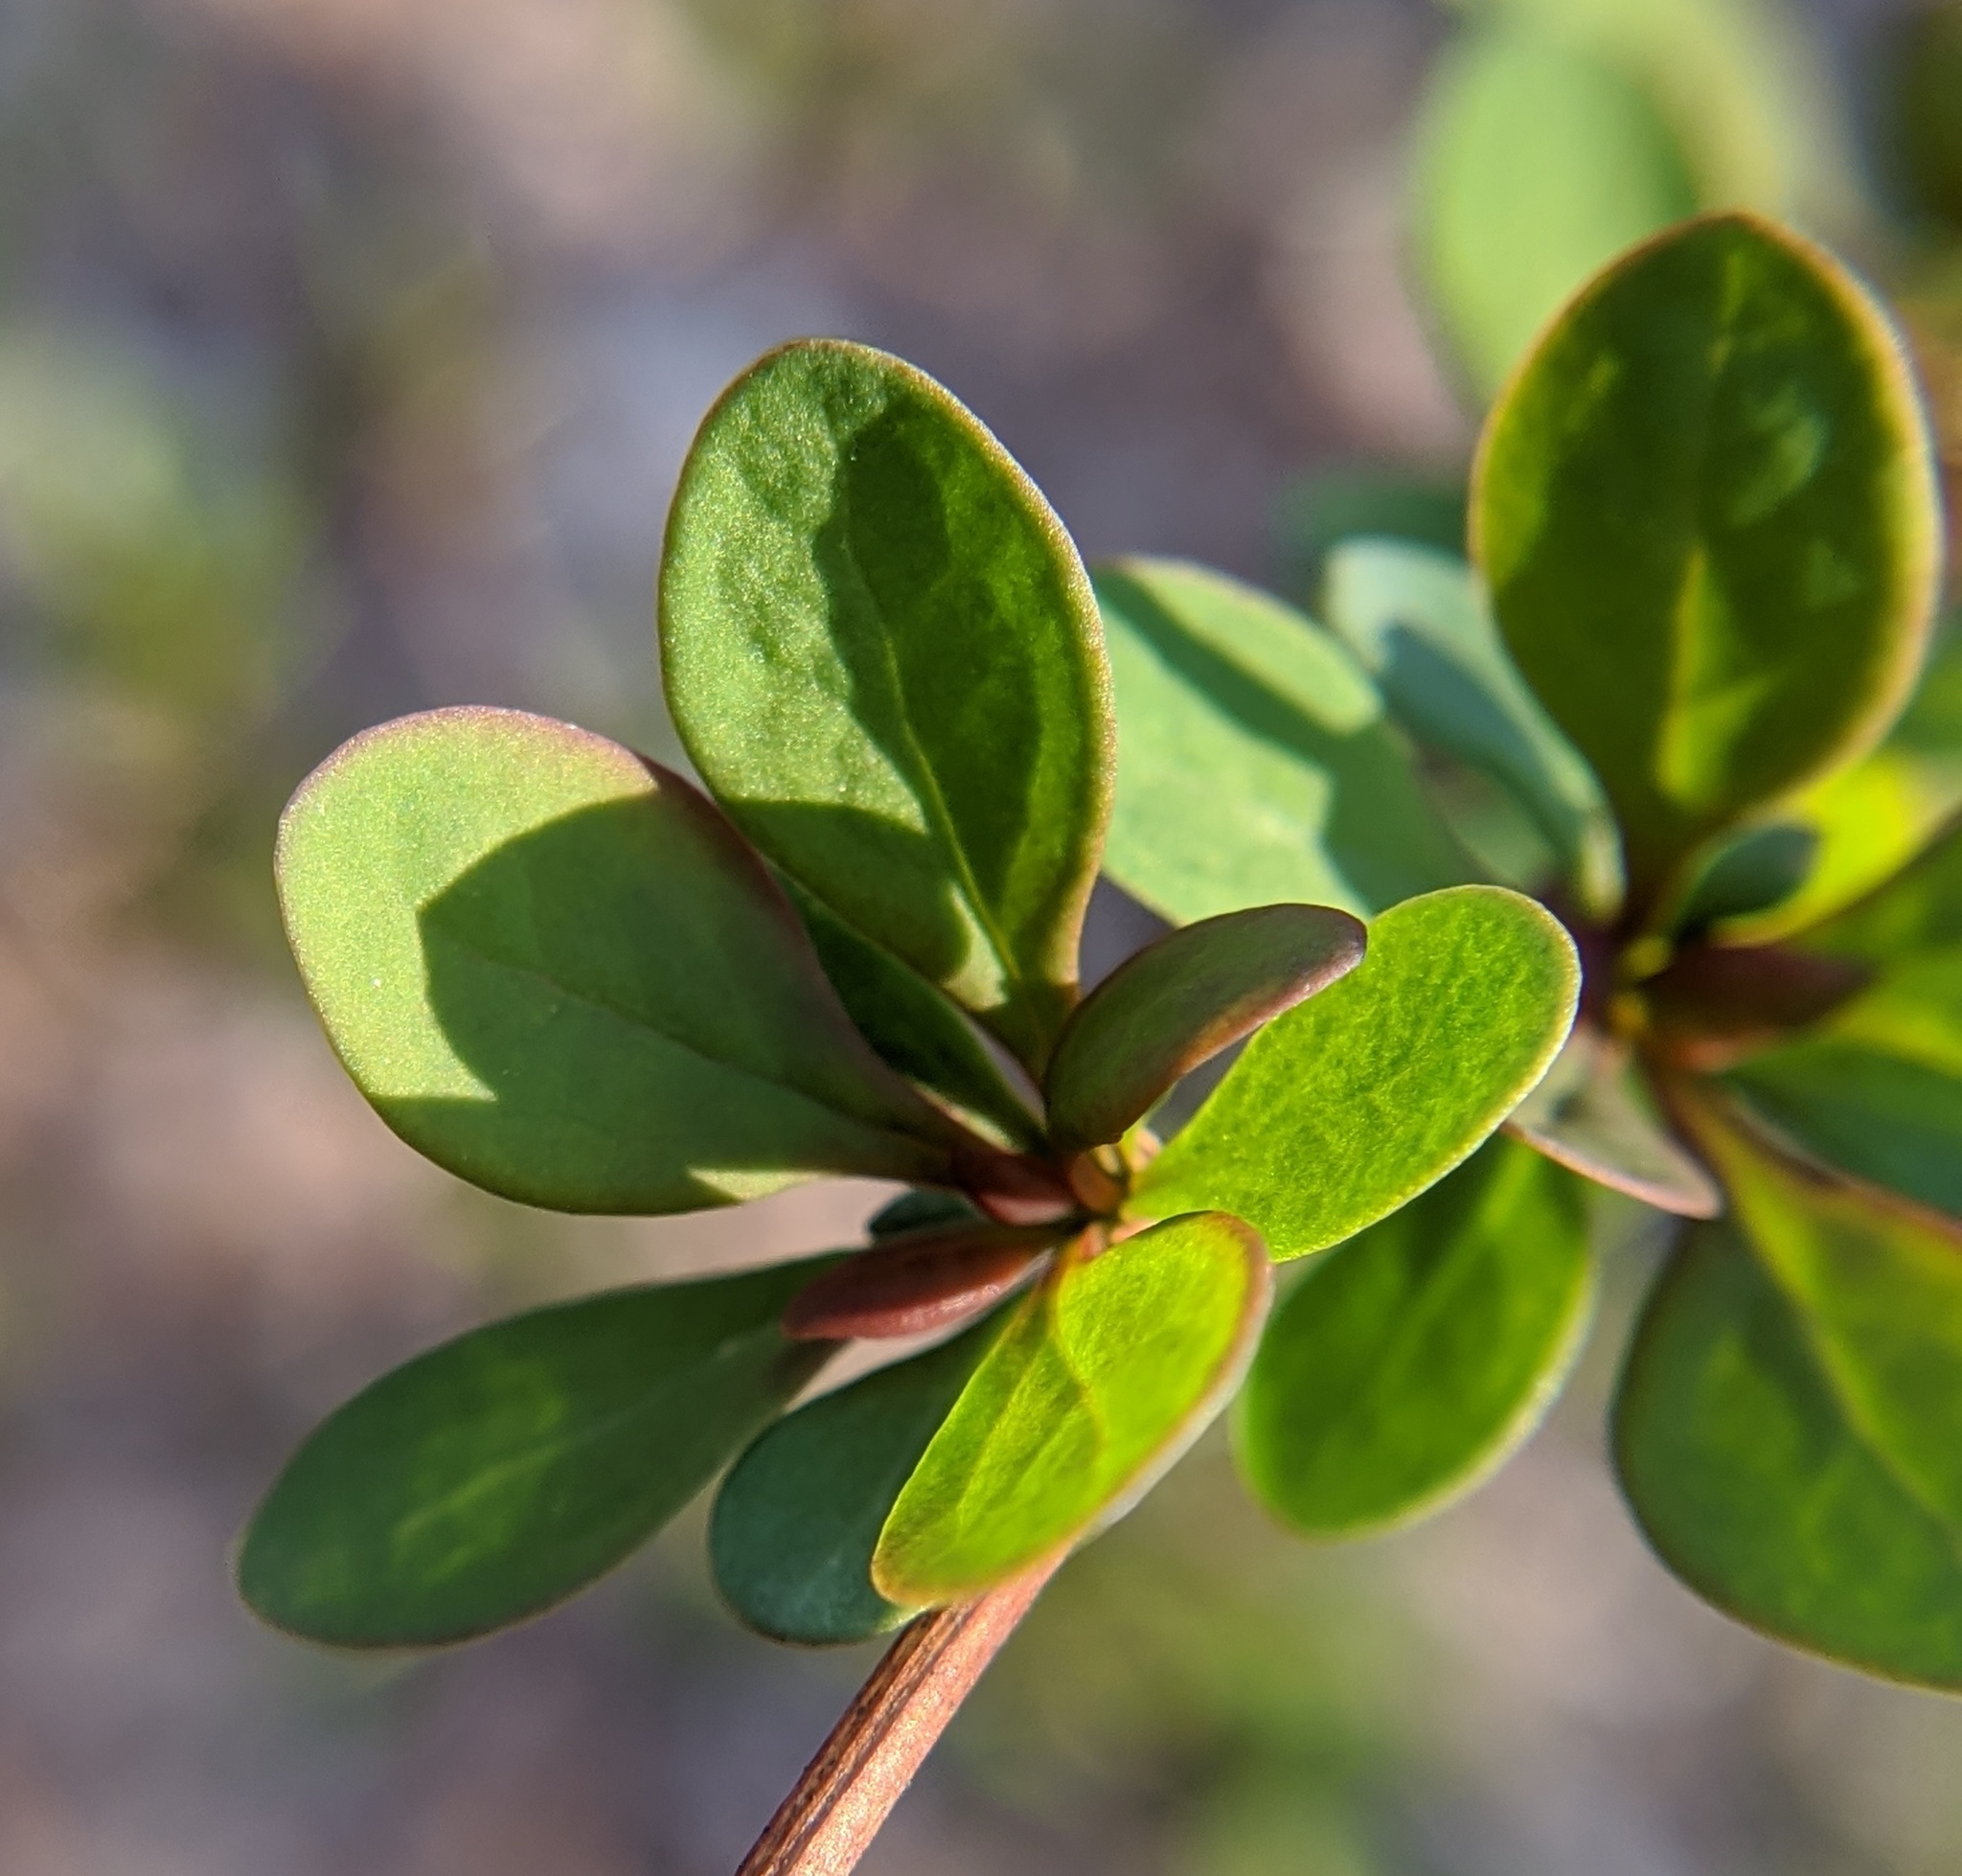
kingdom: Plantae
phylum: Tracheophyta
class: Magnoliopsida
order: Ranunculales
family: Berberidaceae
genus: Berberis
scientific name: Berberis thunbergii
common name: Japanese barberry
